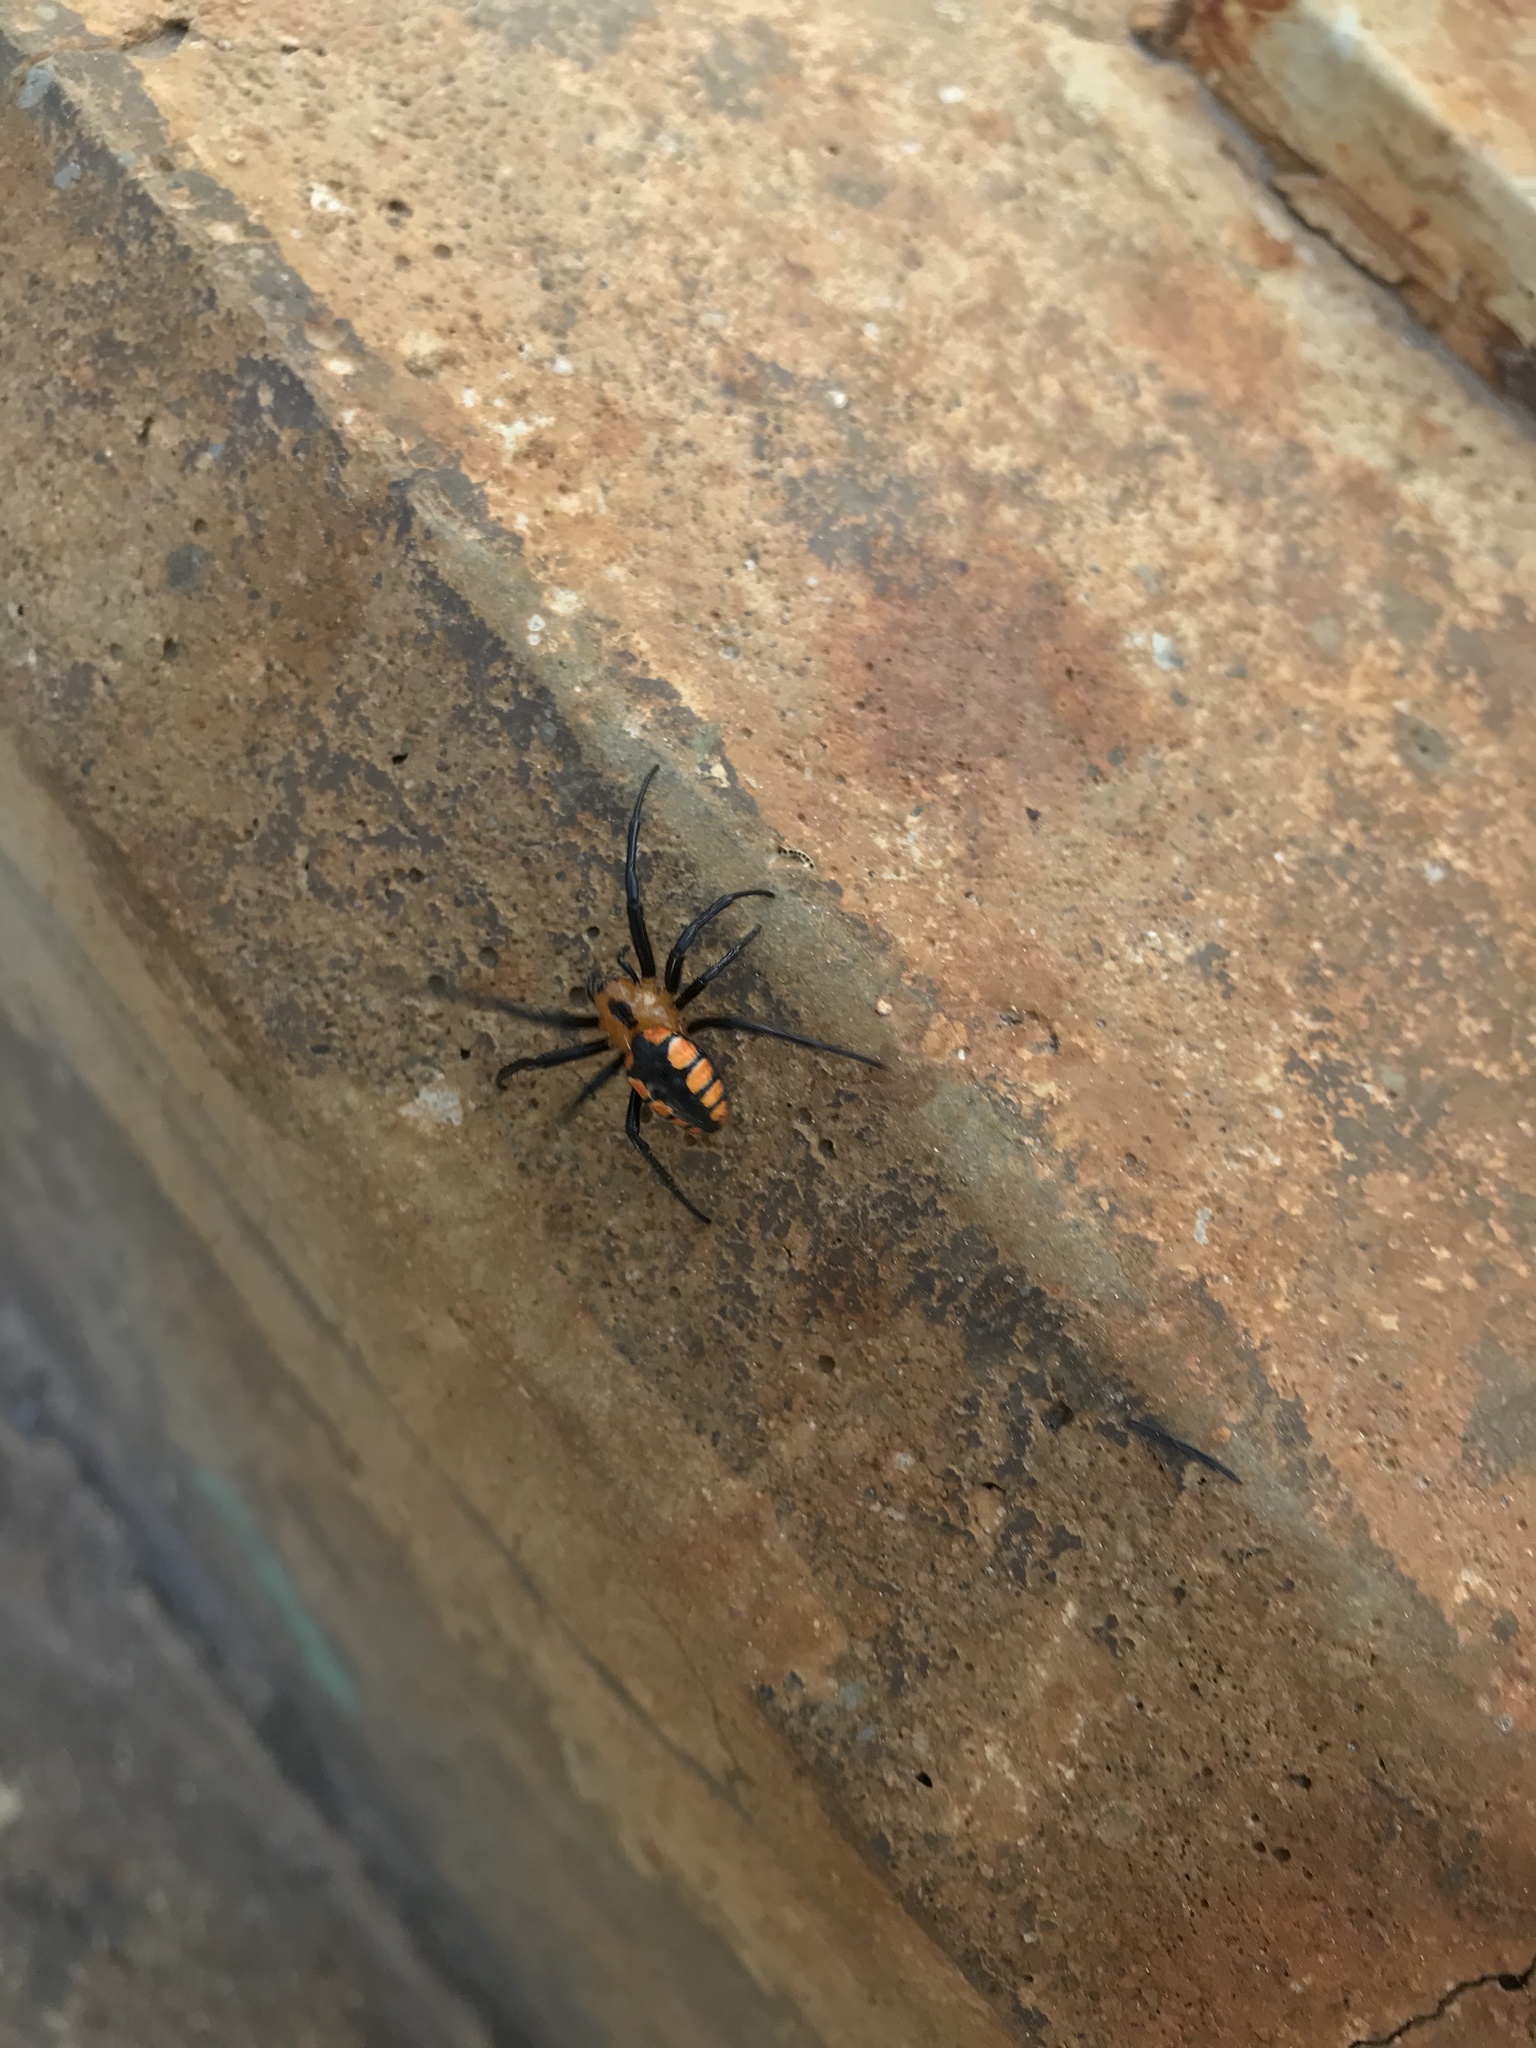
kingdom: Animalia
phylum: Arthropoda
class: Arachnida
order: Araneae
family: Araneidae
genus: Alpaida
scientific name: Alpaida latro
